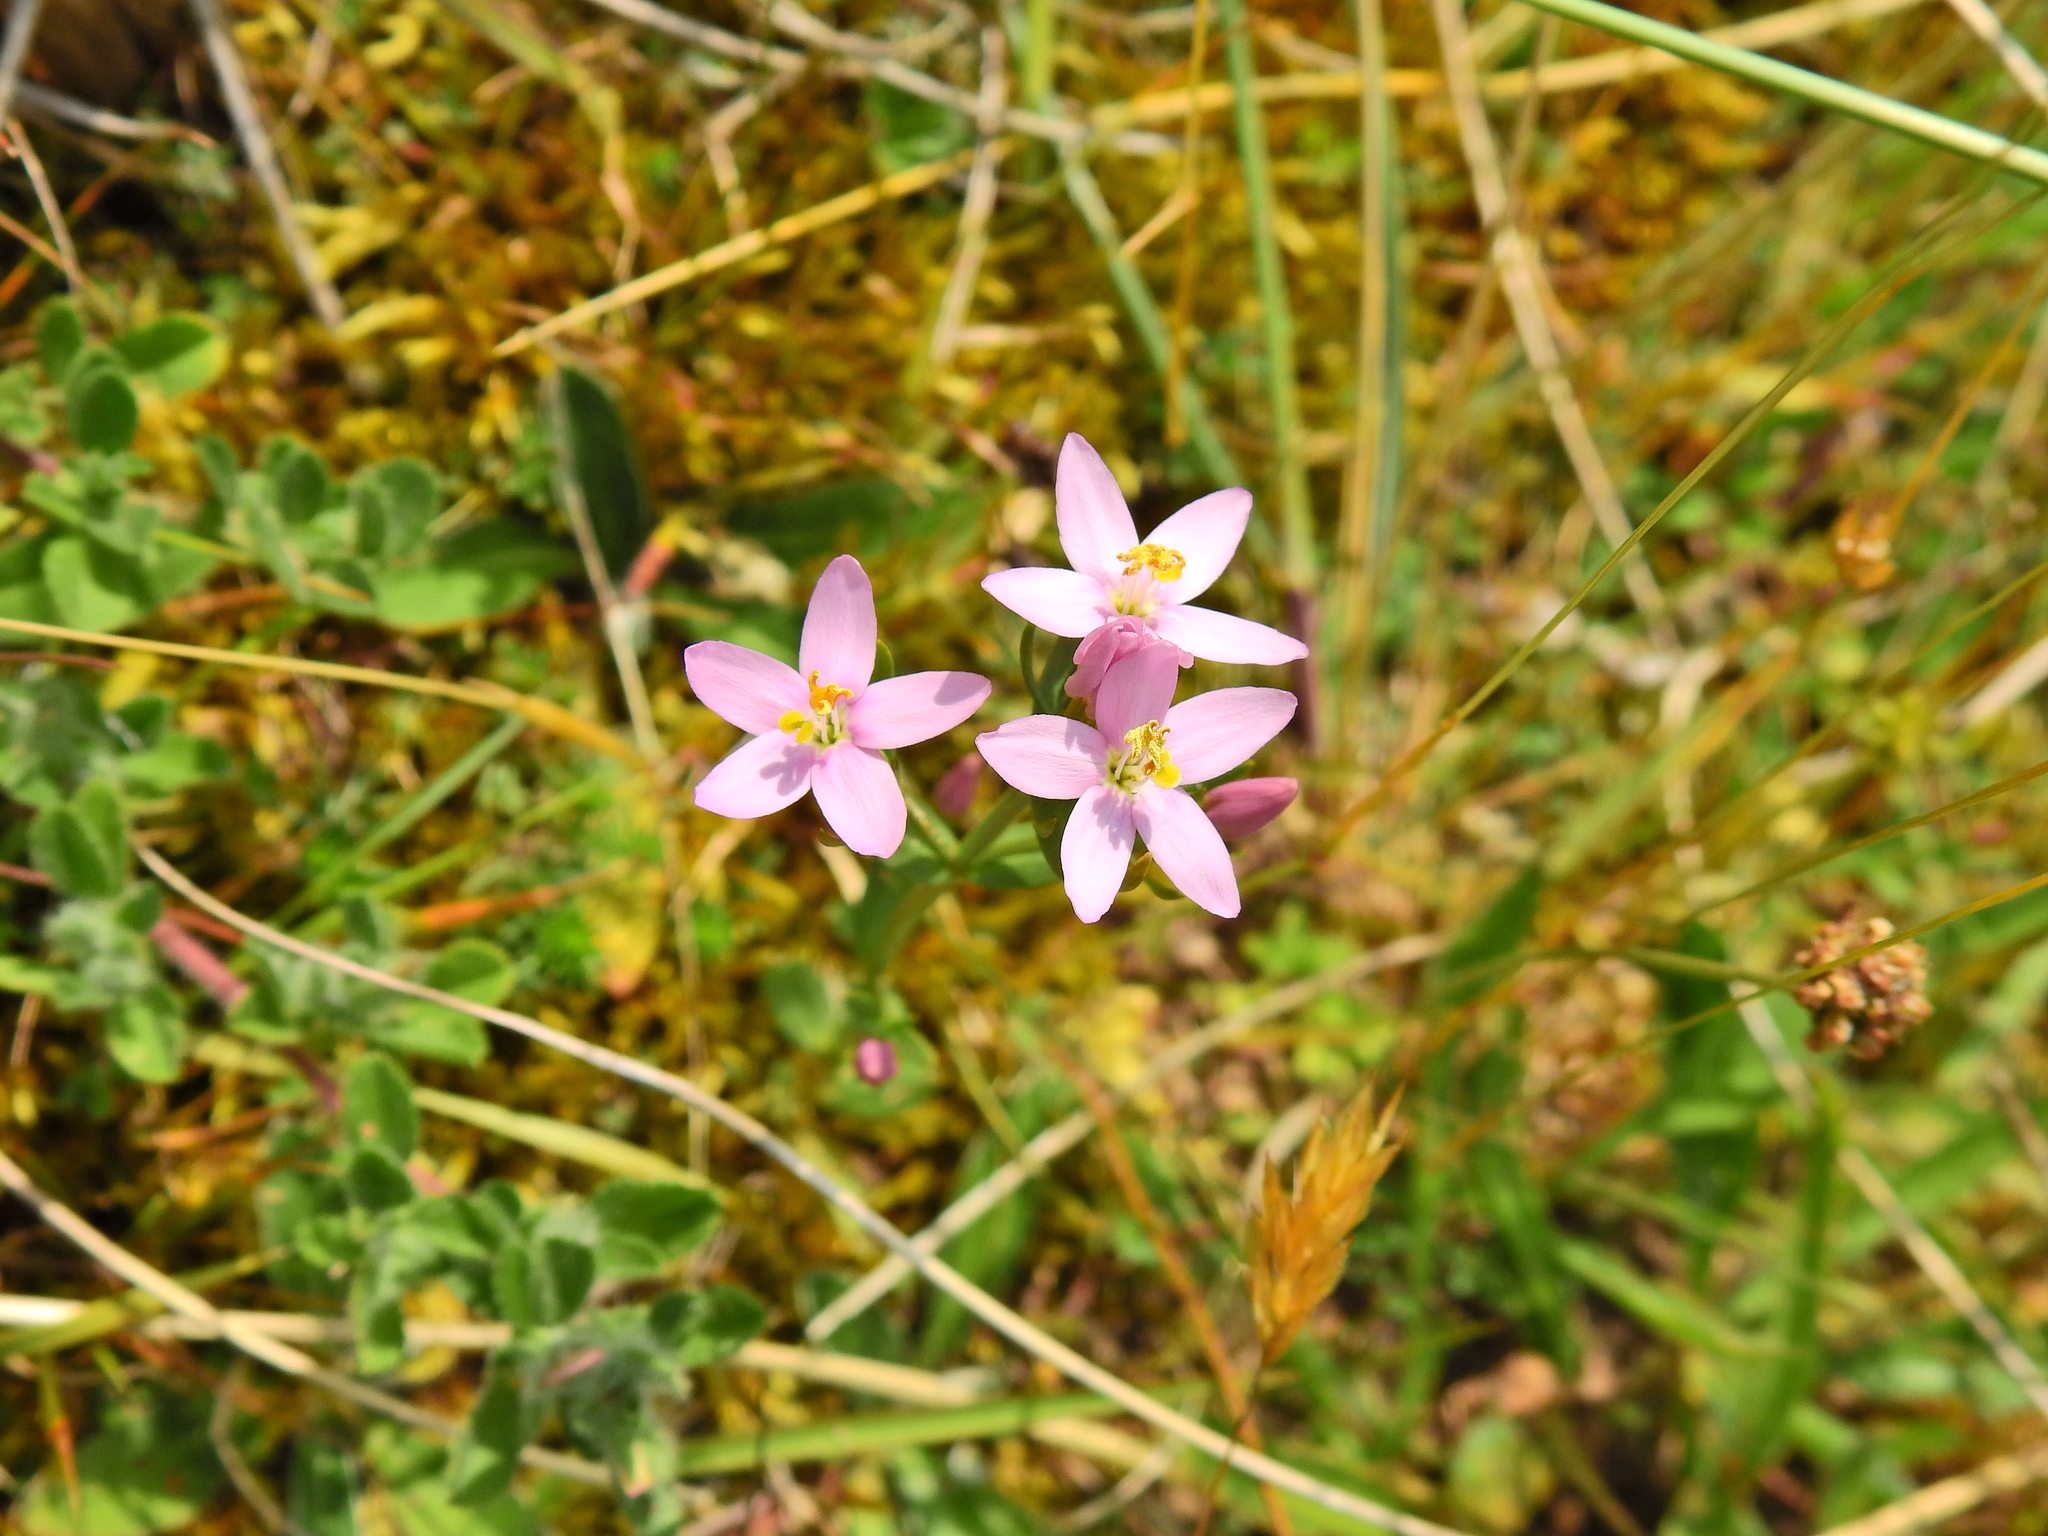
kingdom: Plantae
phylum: Tracheophyta
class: Magnoliopsida
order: Gentianales
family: Gentianaceae
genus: Centaurium
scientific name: Centaurium erythraea
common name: Common centaury
